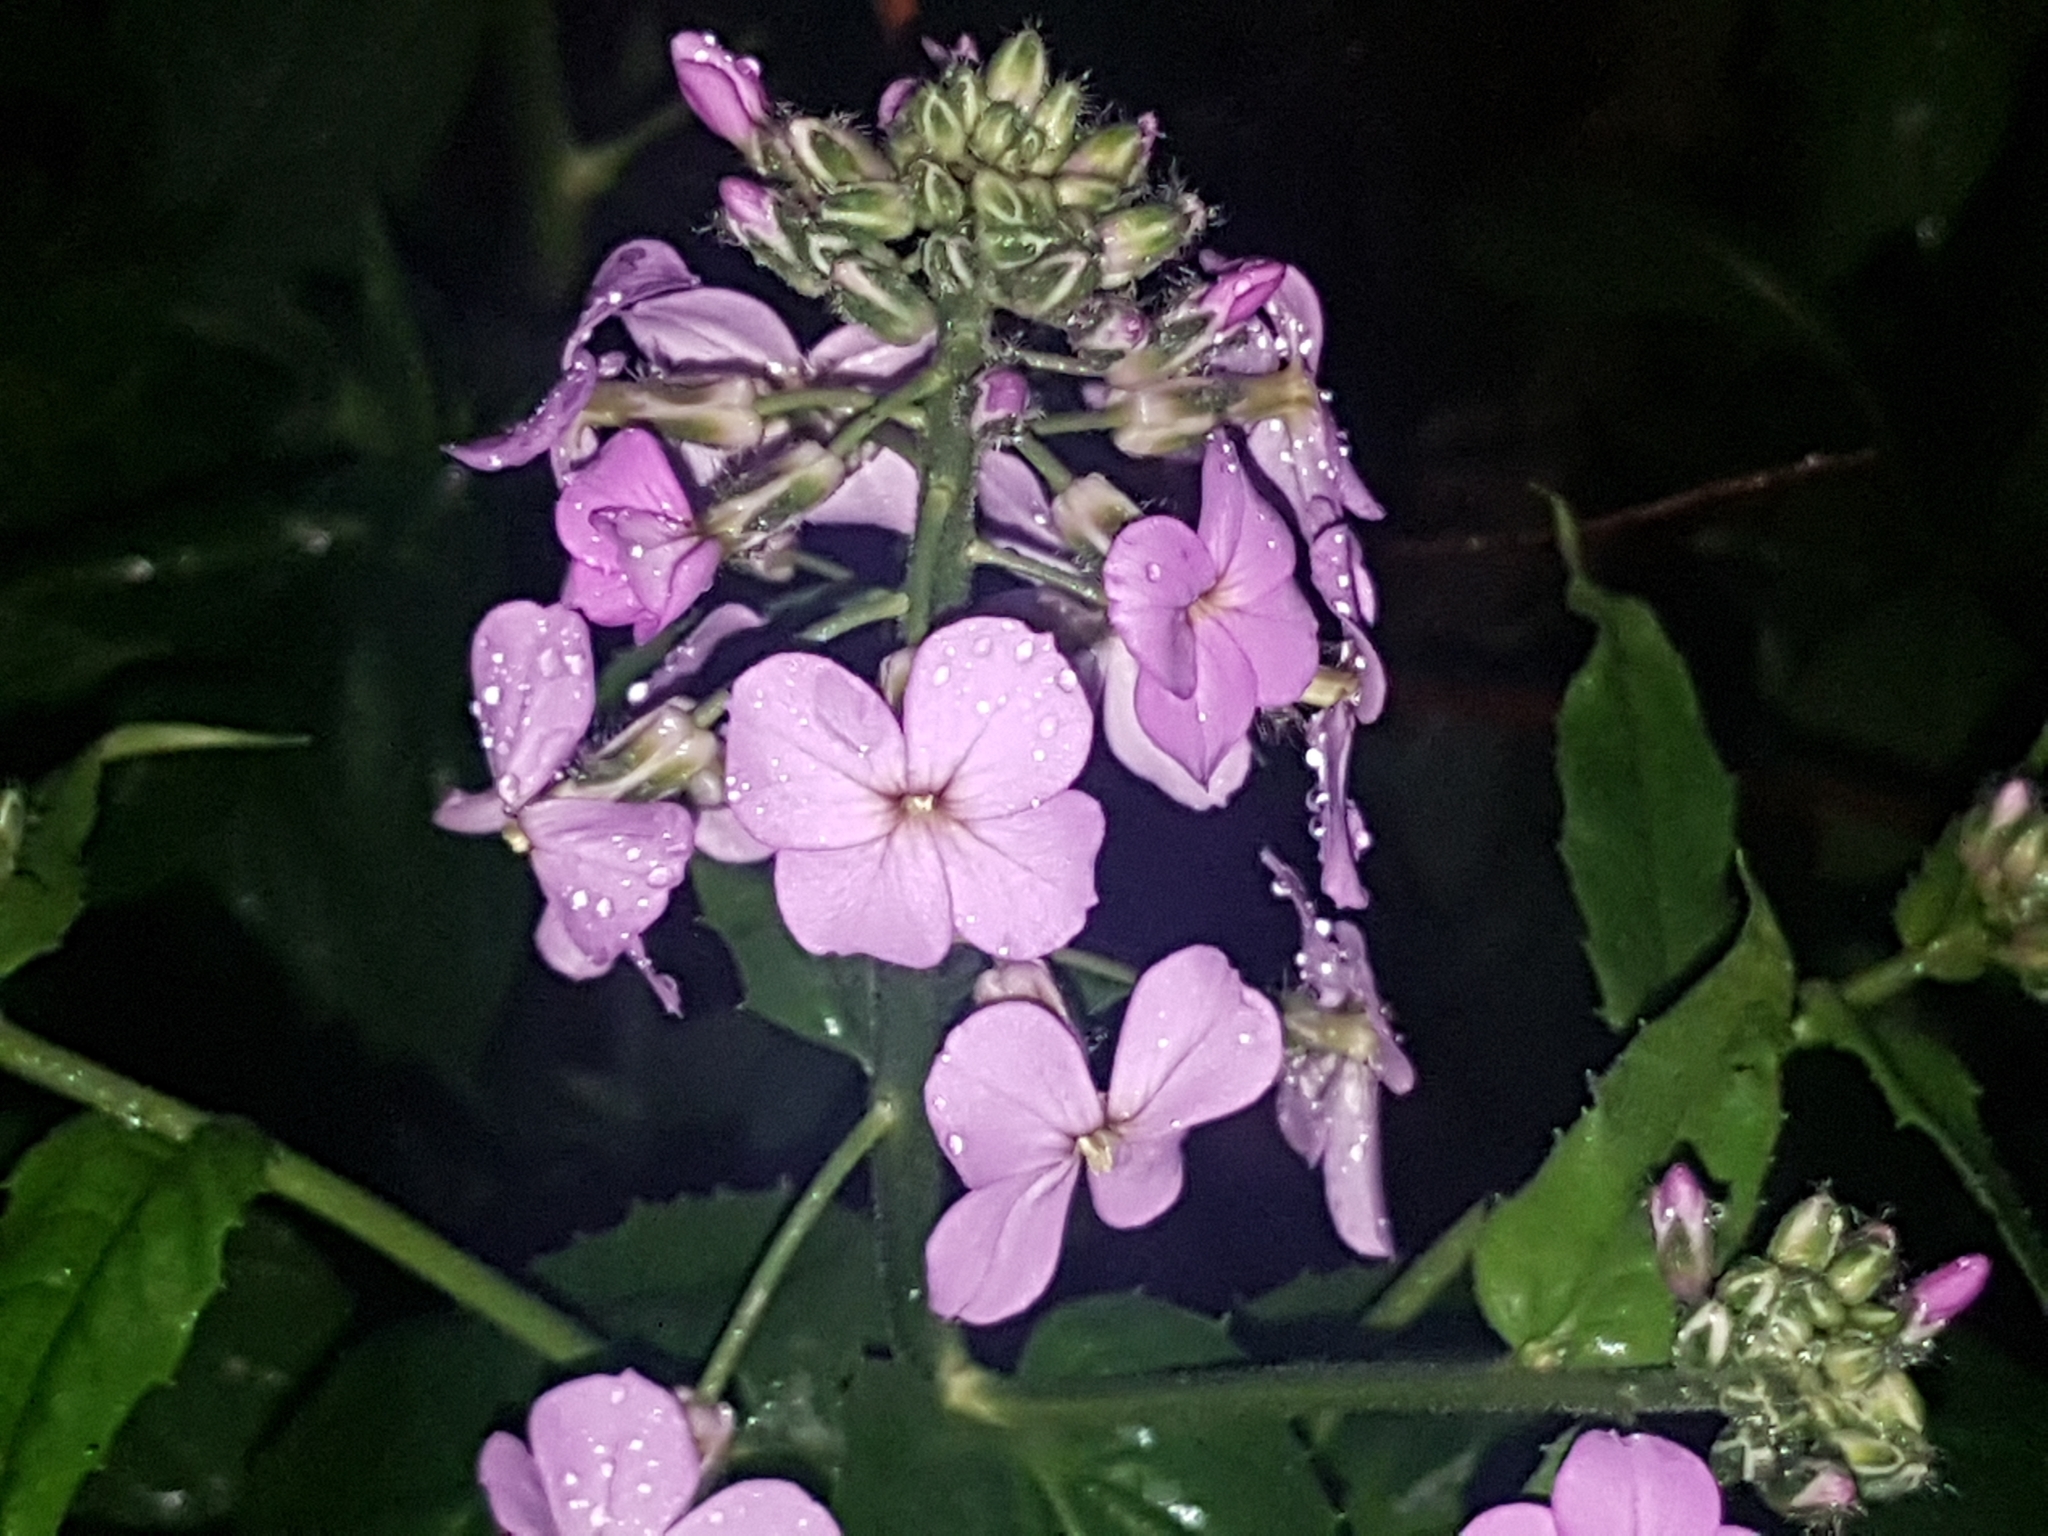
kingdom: Plantae
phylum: Tracheophyta
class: Magnoliopsida
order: Brassicales
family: Brassicaceae
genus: Hesperis
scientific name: Hesperis matronalis
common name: Dame's-violet
